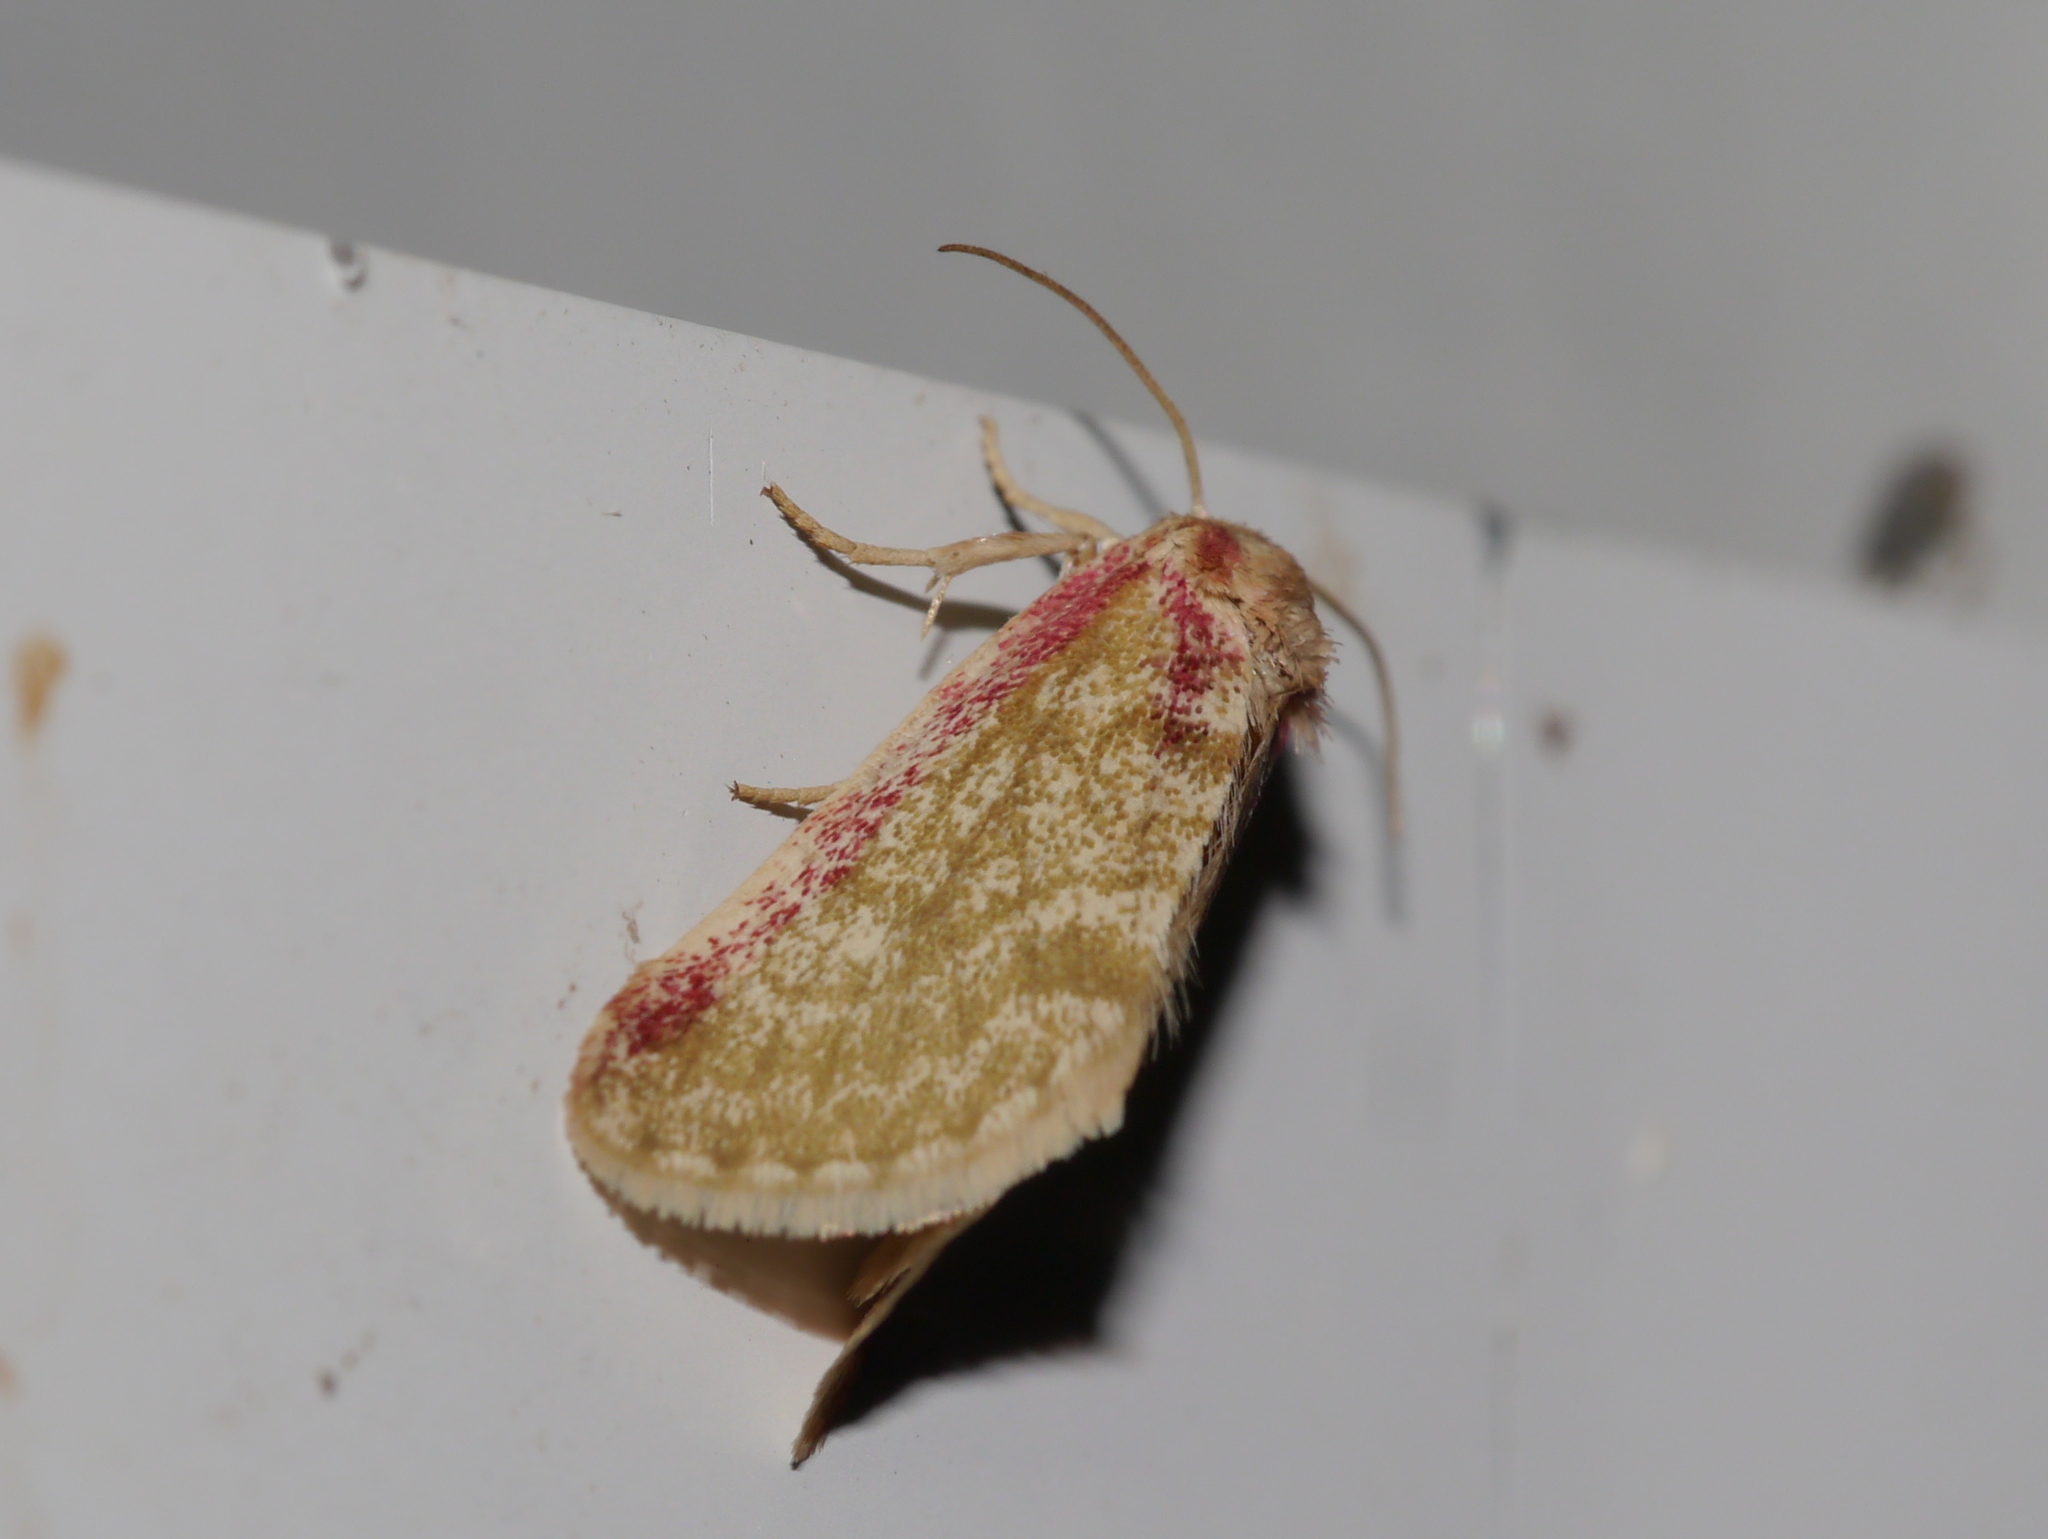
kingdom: Animalia
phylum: Arthropoda
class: Insecta
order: Lepidoptera
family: Noctuidae
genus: Aleptinoides
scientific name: Aleptinoides ochrea
